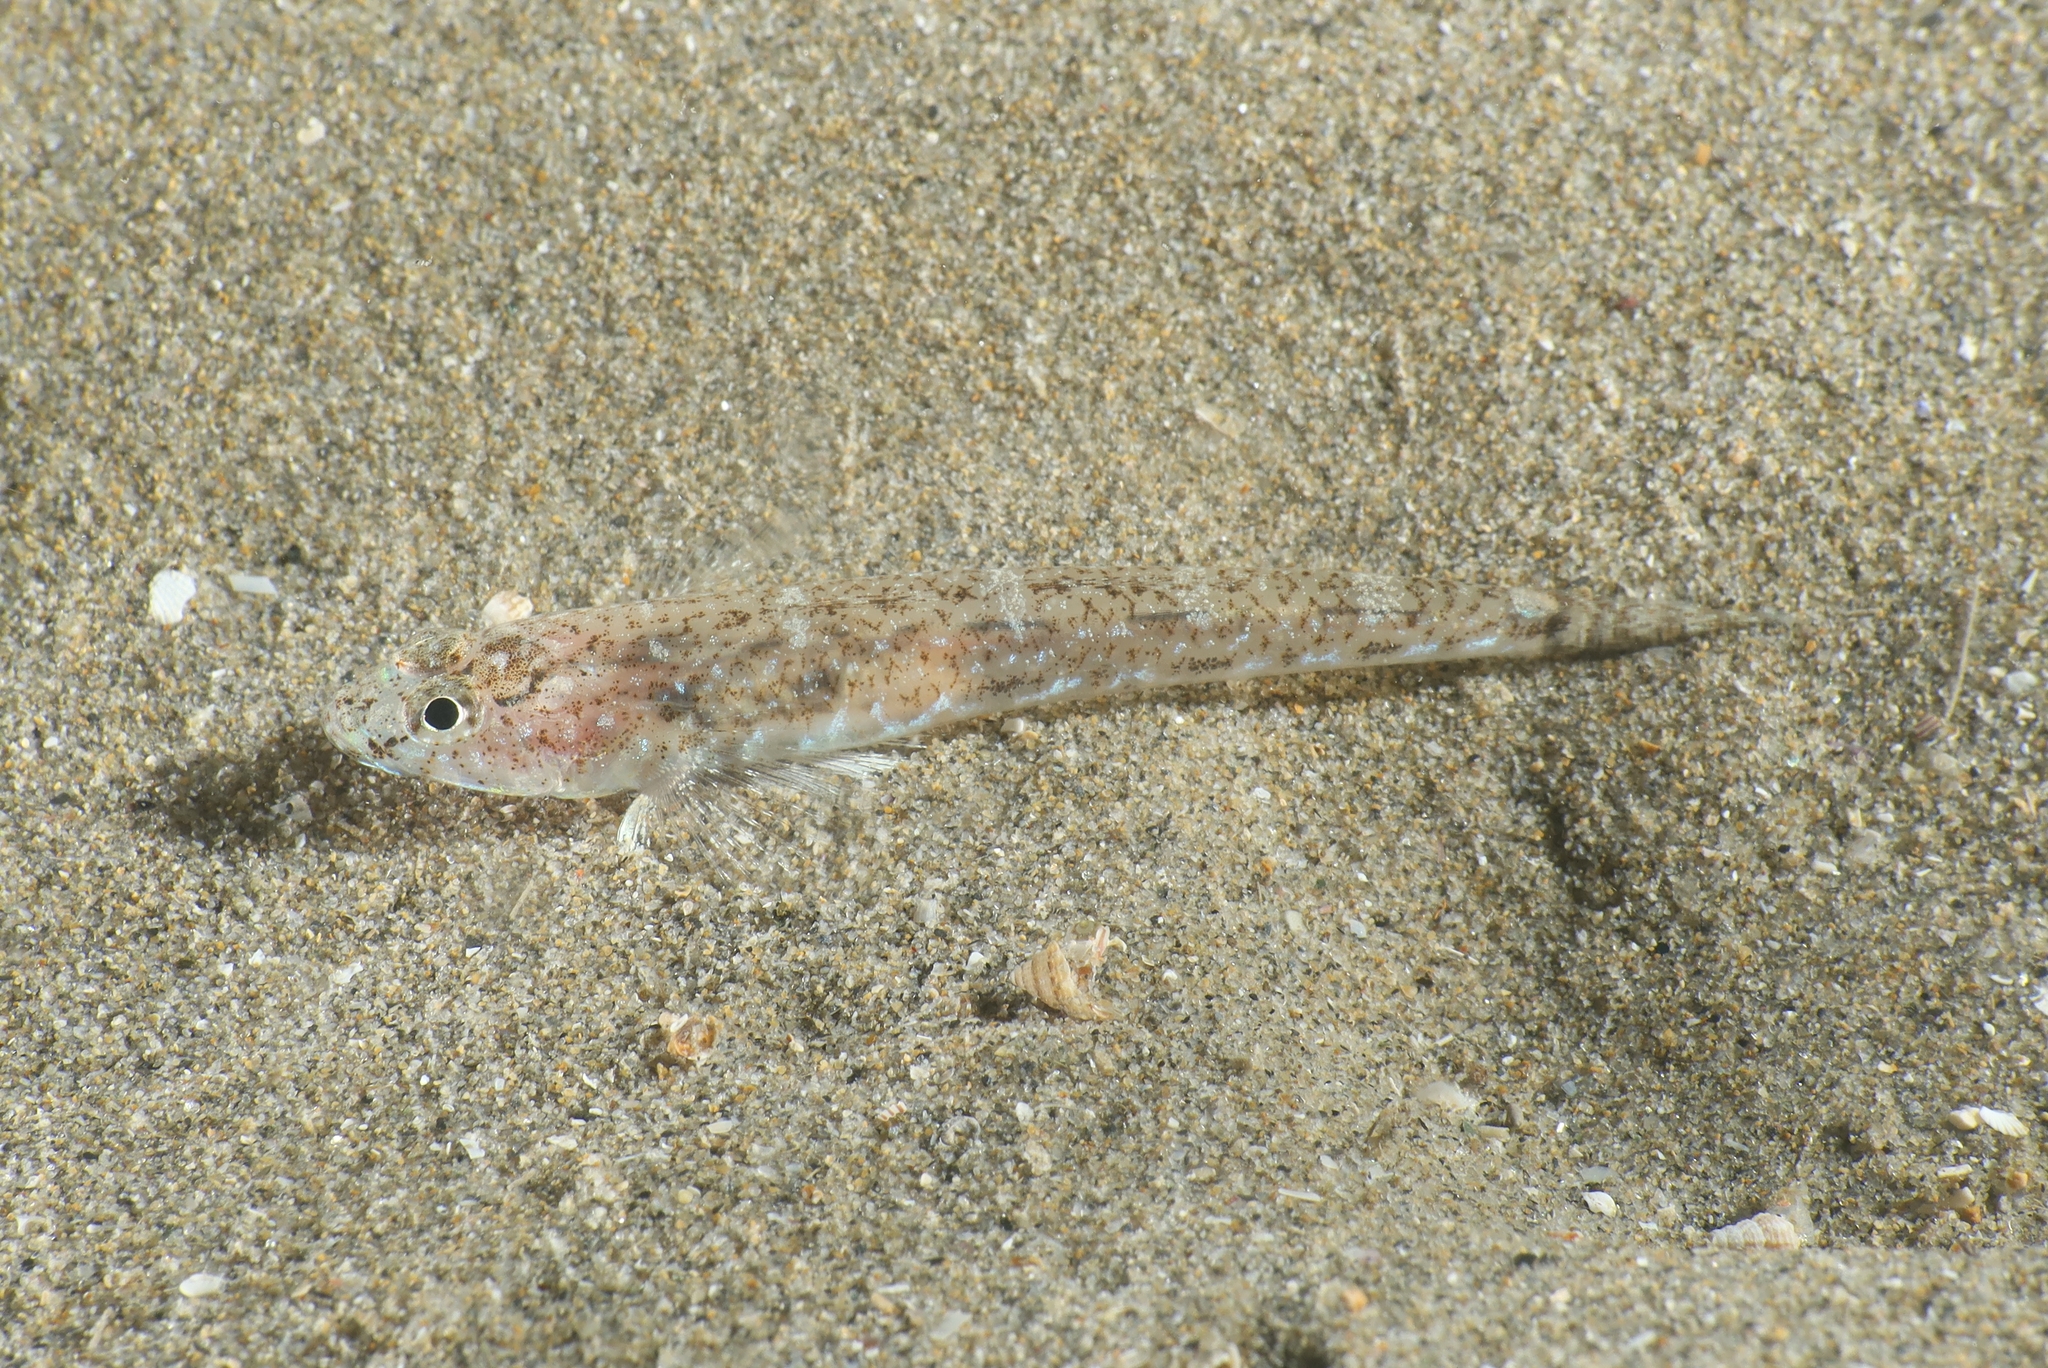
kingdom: Animalia
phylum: Chordata
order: Perciformes
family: Gobiidae
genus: Pomatoschistus
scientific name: Pomatoschistus marmoratus
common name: Marbled goby
